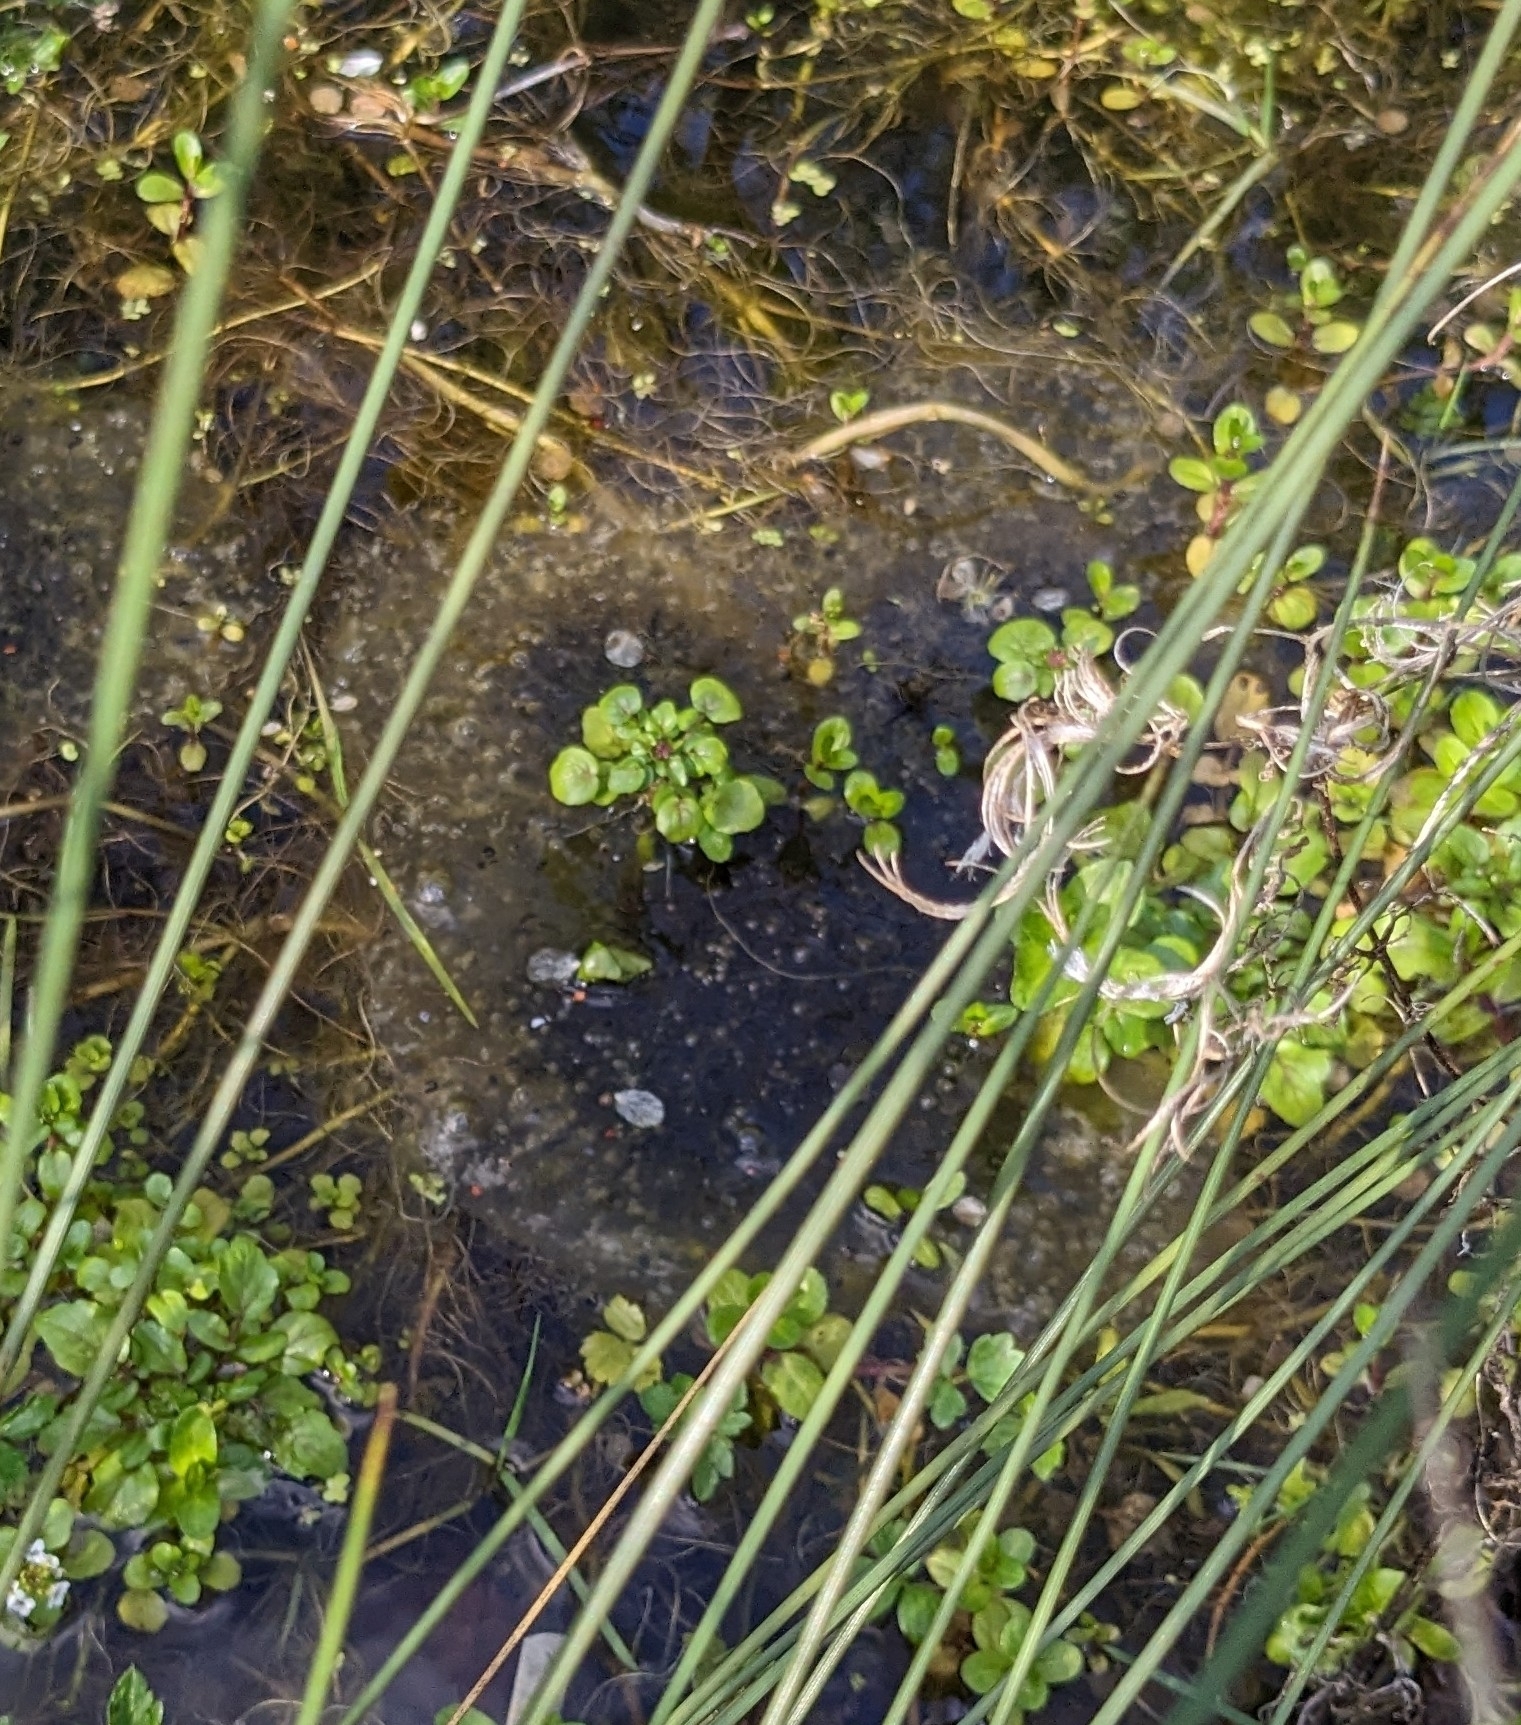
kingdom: Animalia
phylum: Chordata
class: Amphibia
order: Anura
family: Ranidae
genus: Rana
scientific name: Rana temporaria
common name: Common frog
